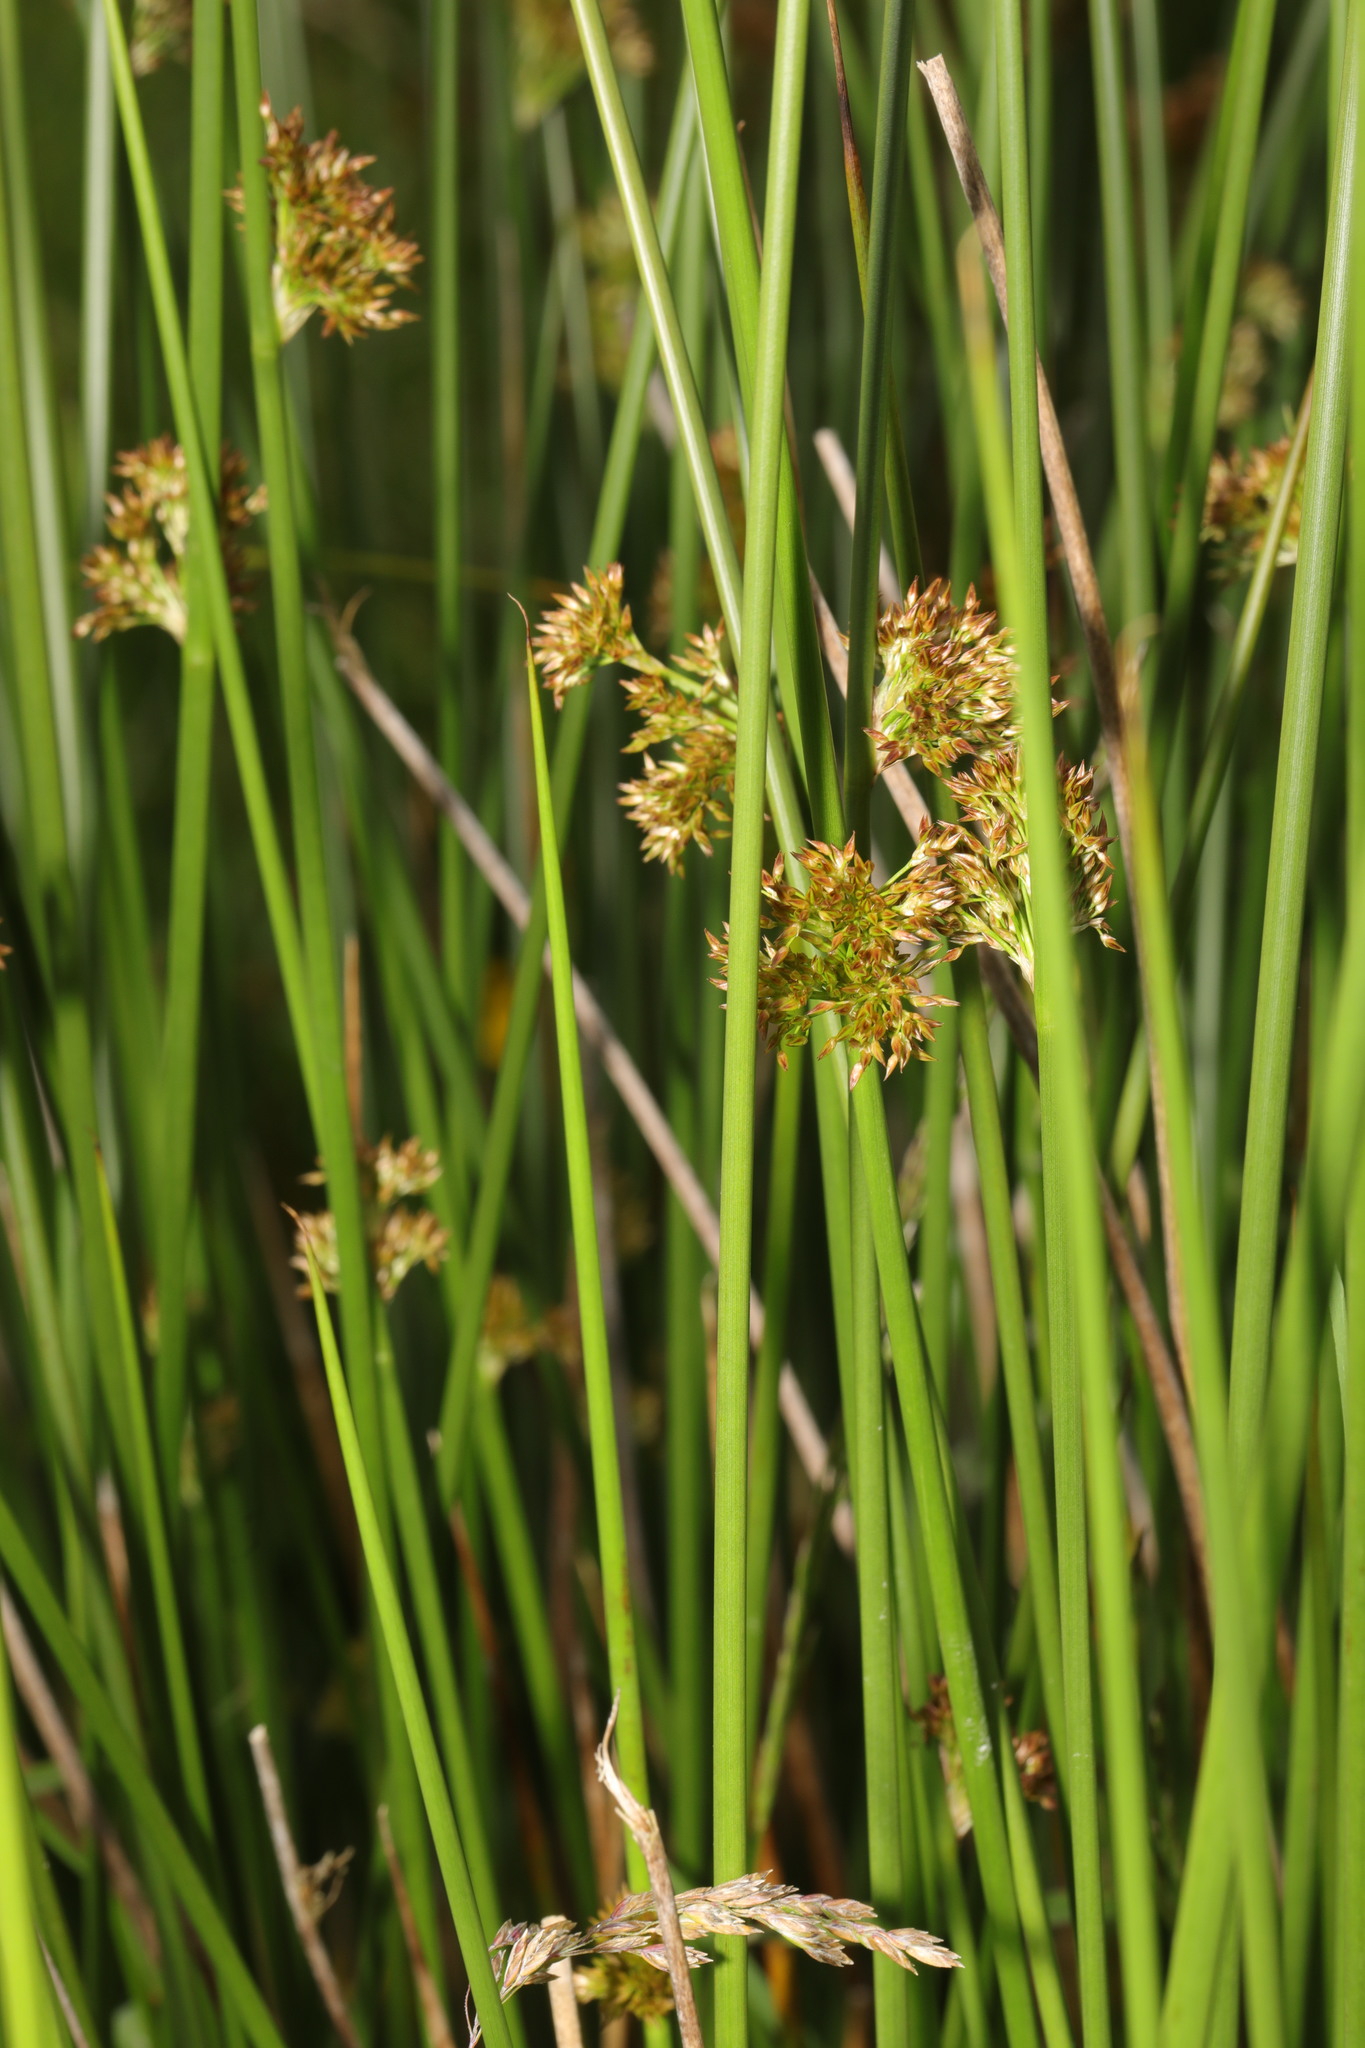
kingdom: Plantae
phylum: Tracheophyta
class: Liliopsida
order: Poales
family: Juncaceae
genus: Juncus
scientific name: Juncus effusus
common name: Soft rush
